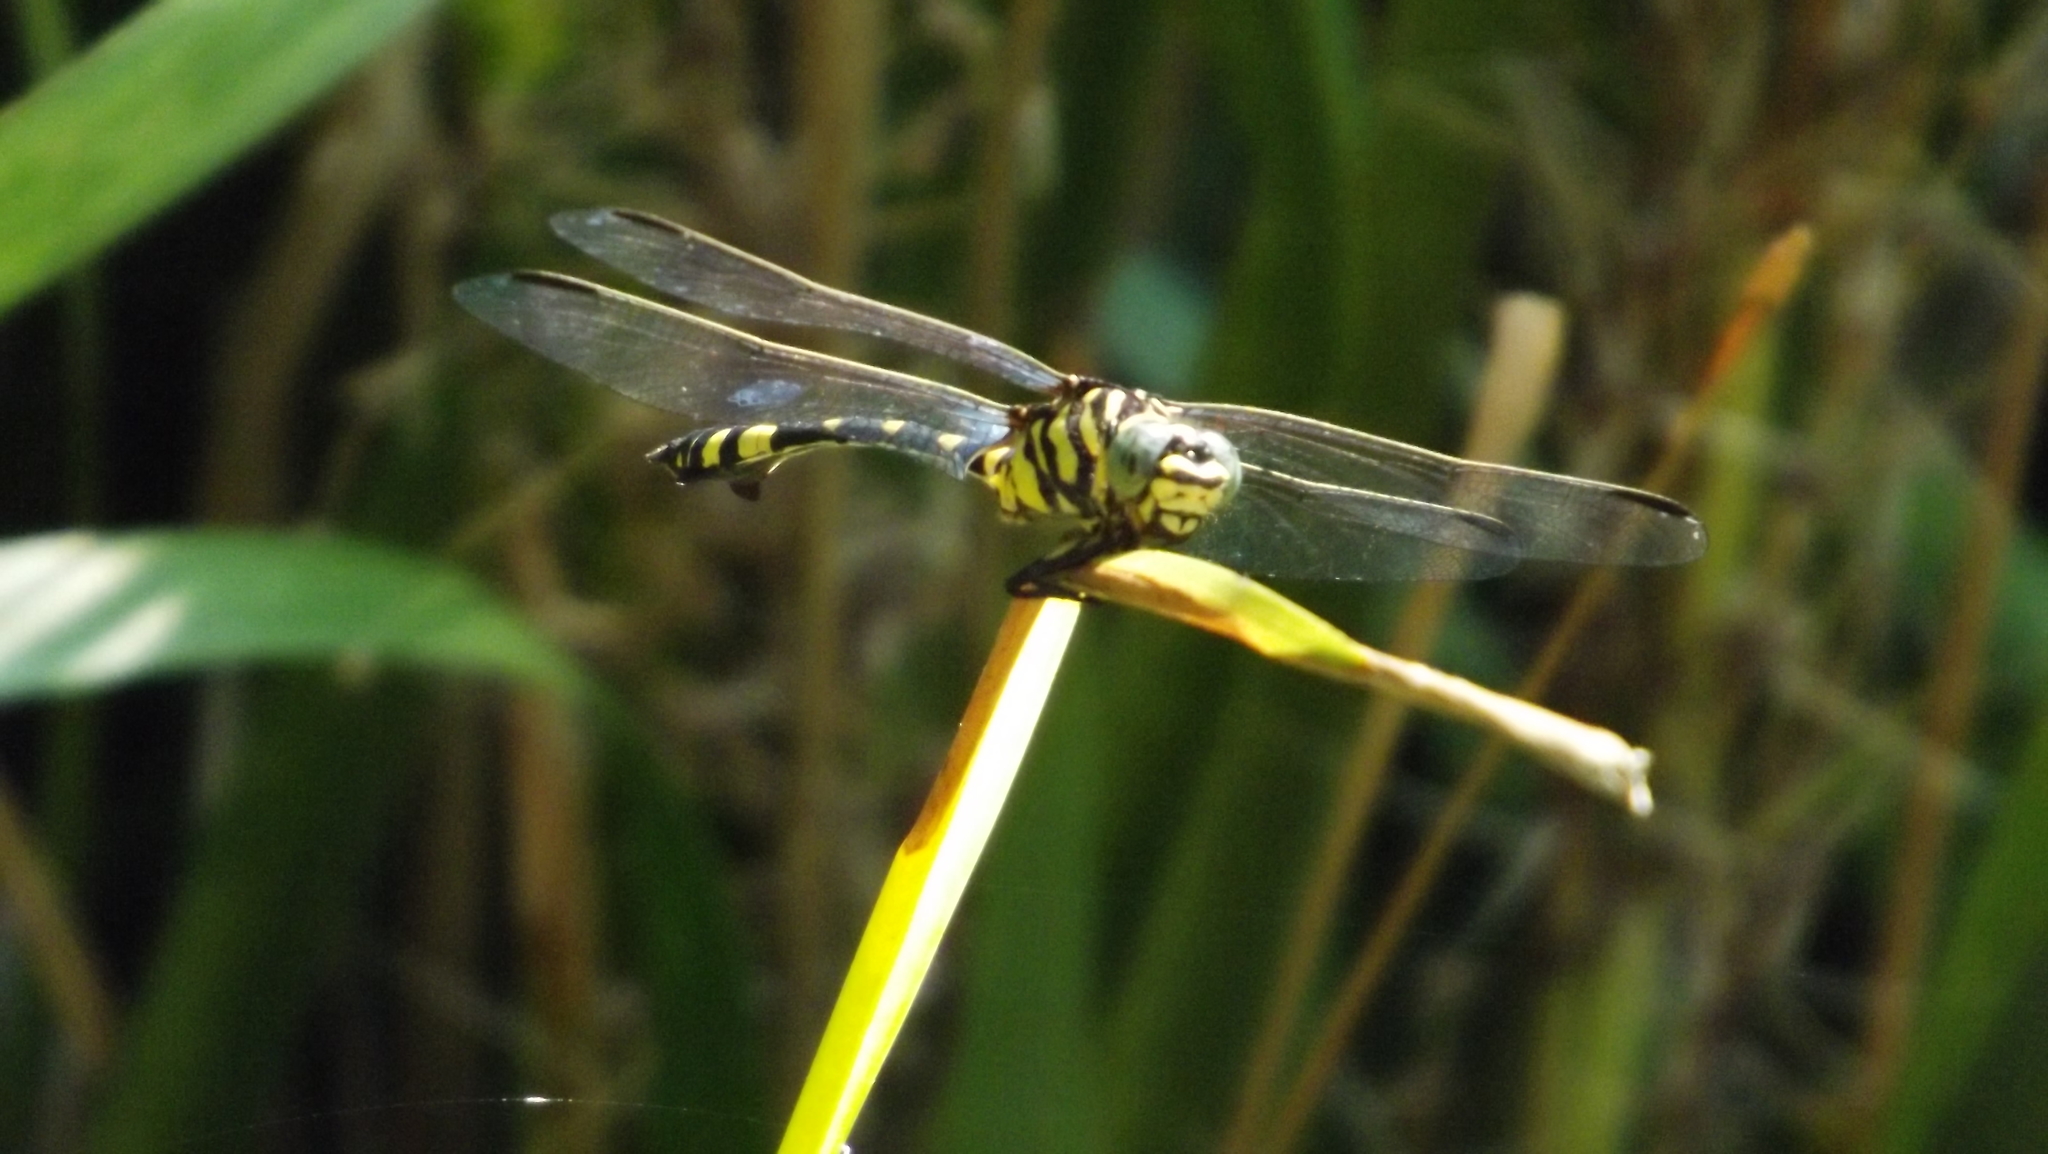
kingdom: Animalia
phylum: Arthropoda
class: Insecta
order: Odonata
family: Gomphidae
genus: Ictinogomphus
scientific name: Ictinogomphus australis
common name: Australian tiger
